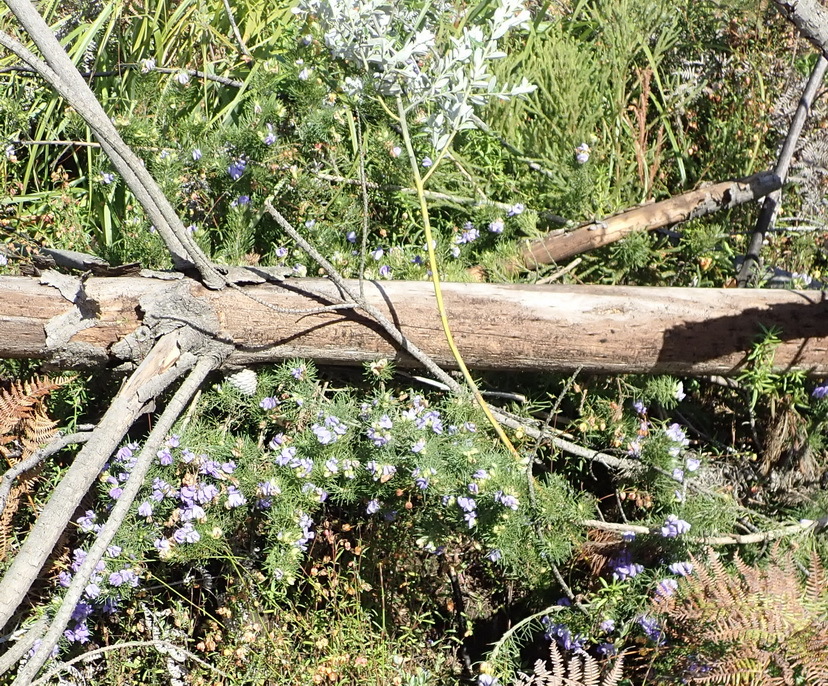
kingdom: Plantae
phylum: Tracheophyta
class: Magnoliopsida
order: Fabales
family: Fabaceae
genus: Psoralea
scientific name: Psoralea azuroides
